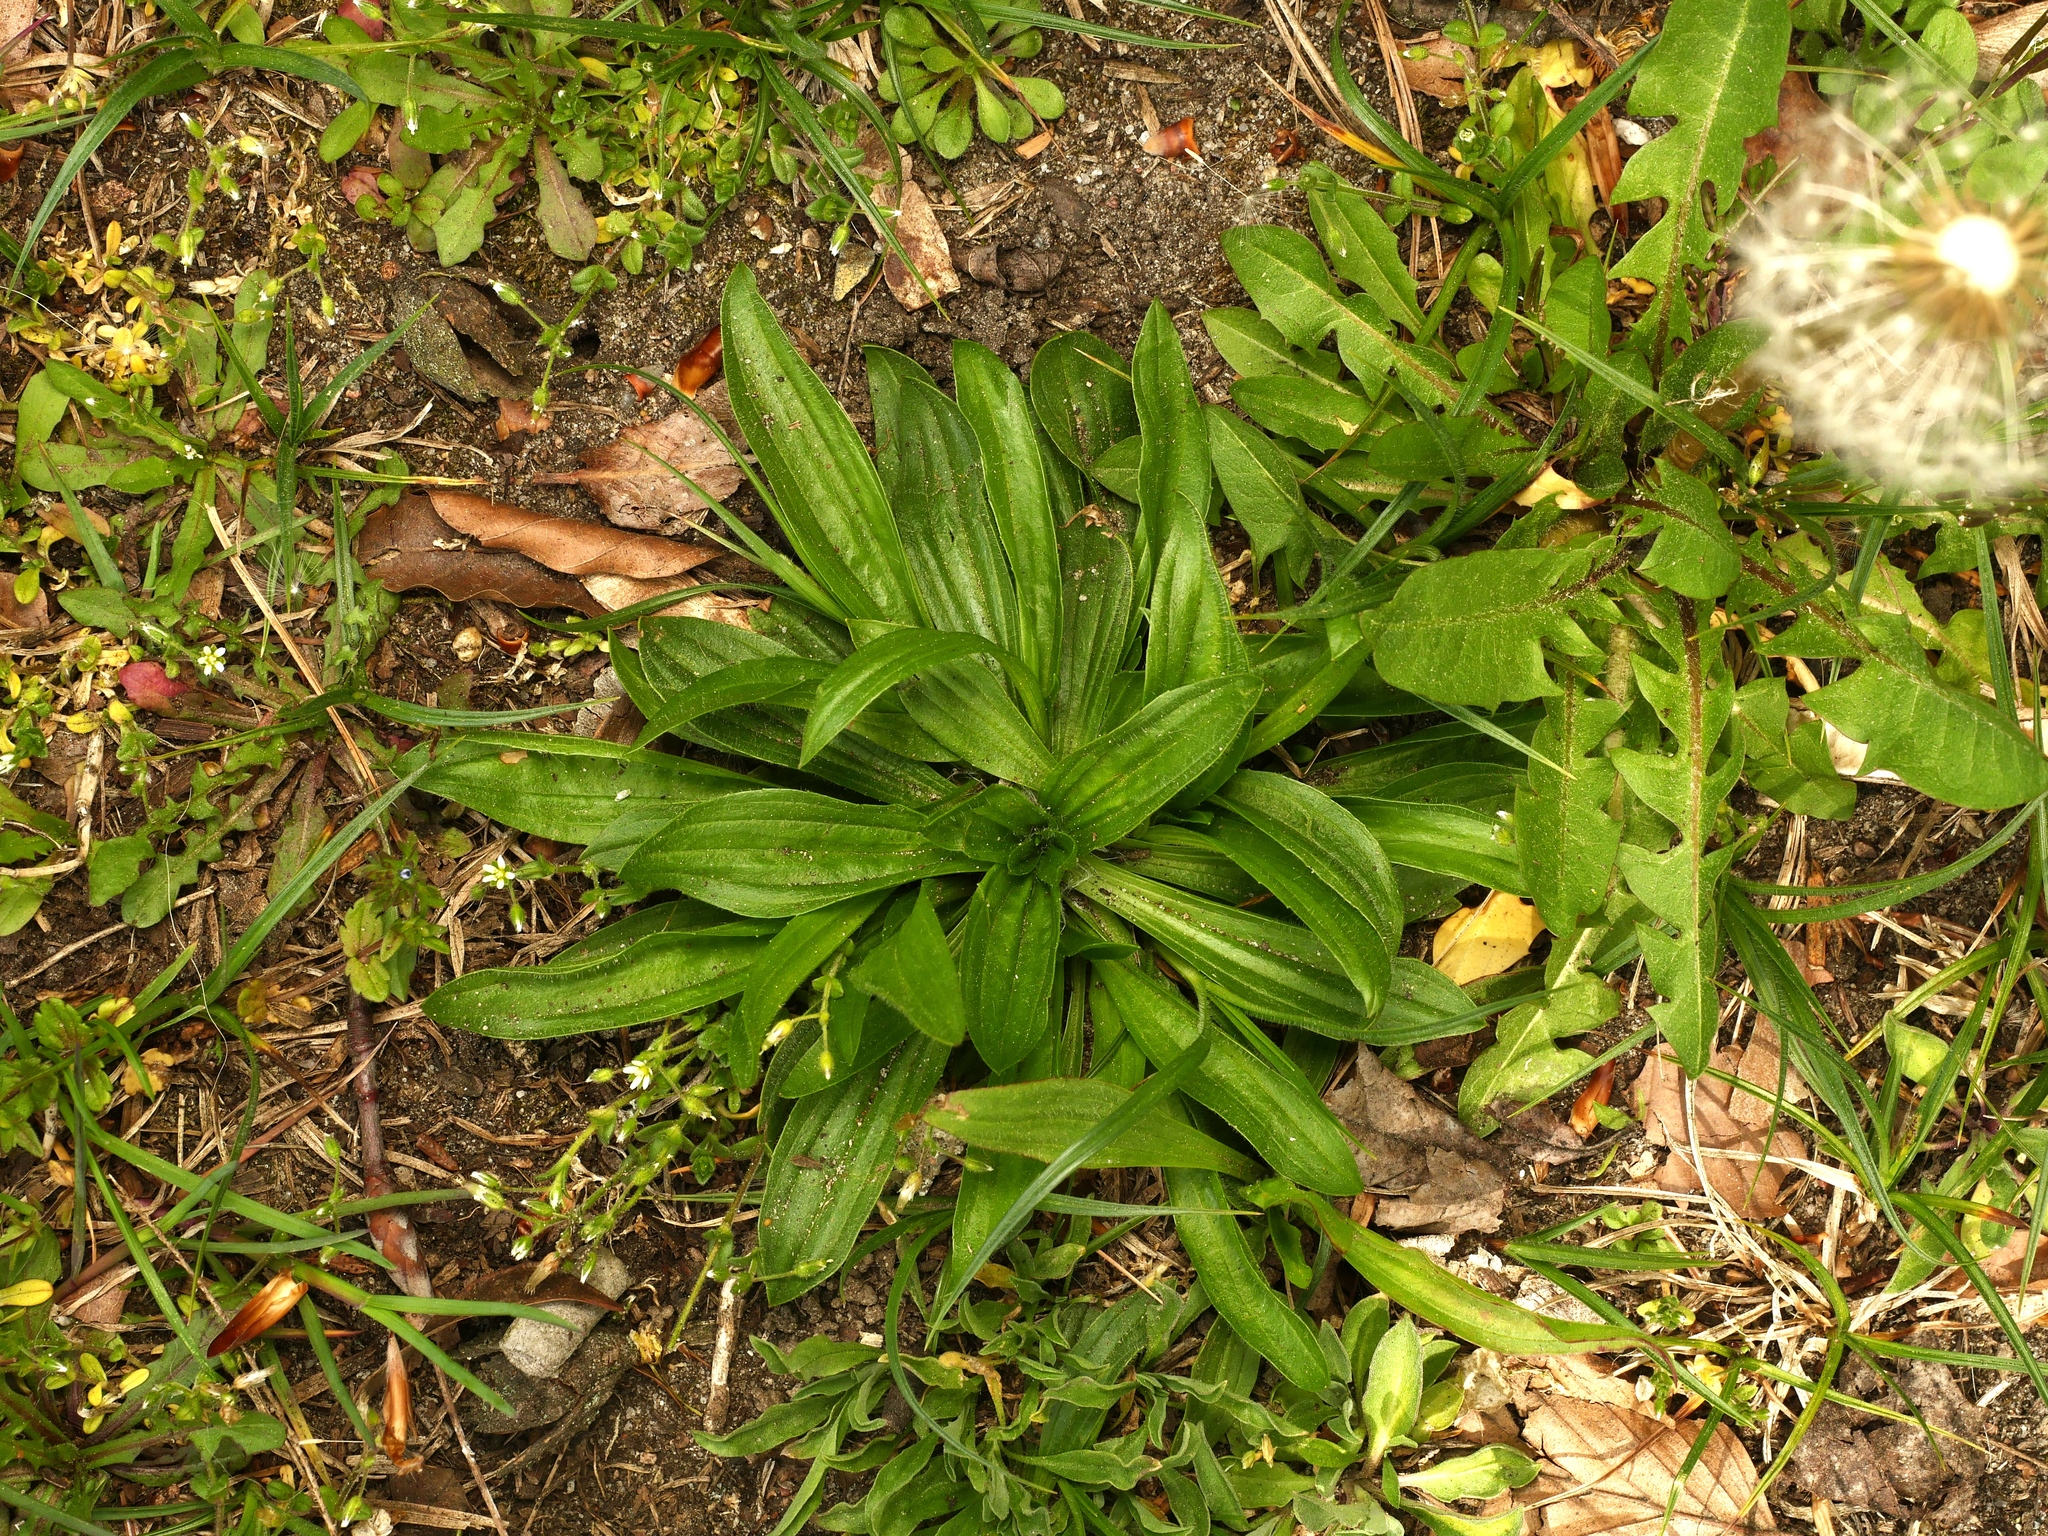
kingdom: Plantae
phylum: Tracheophyta
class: Magnoliopsida
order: Lamiales
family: Plantaginaceae
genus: Plantago
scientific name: Plantago lanceolata
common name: Ribwort plantain
